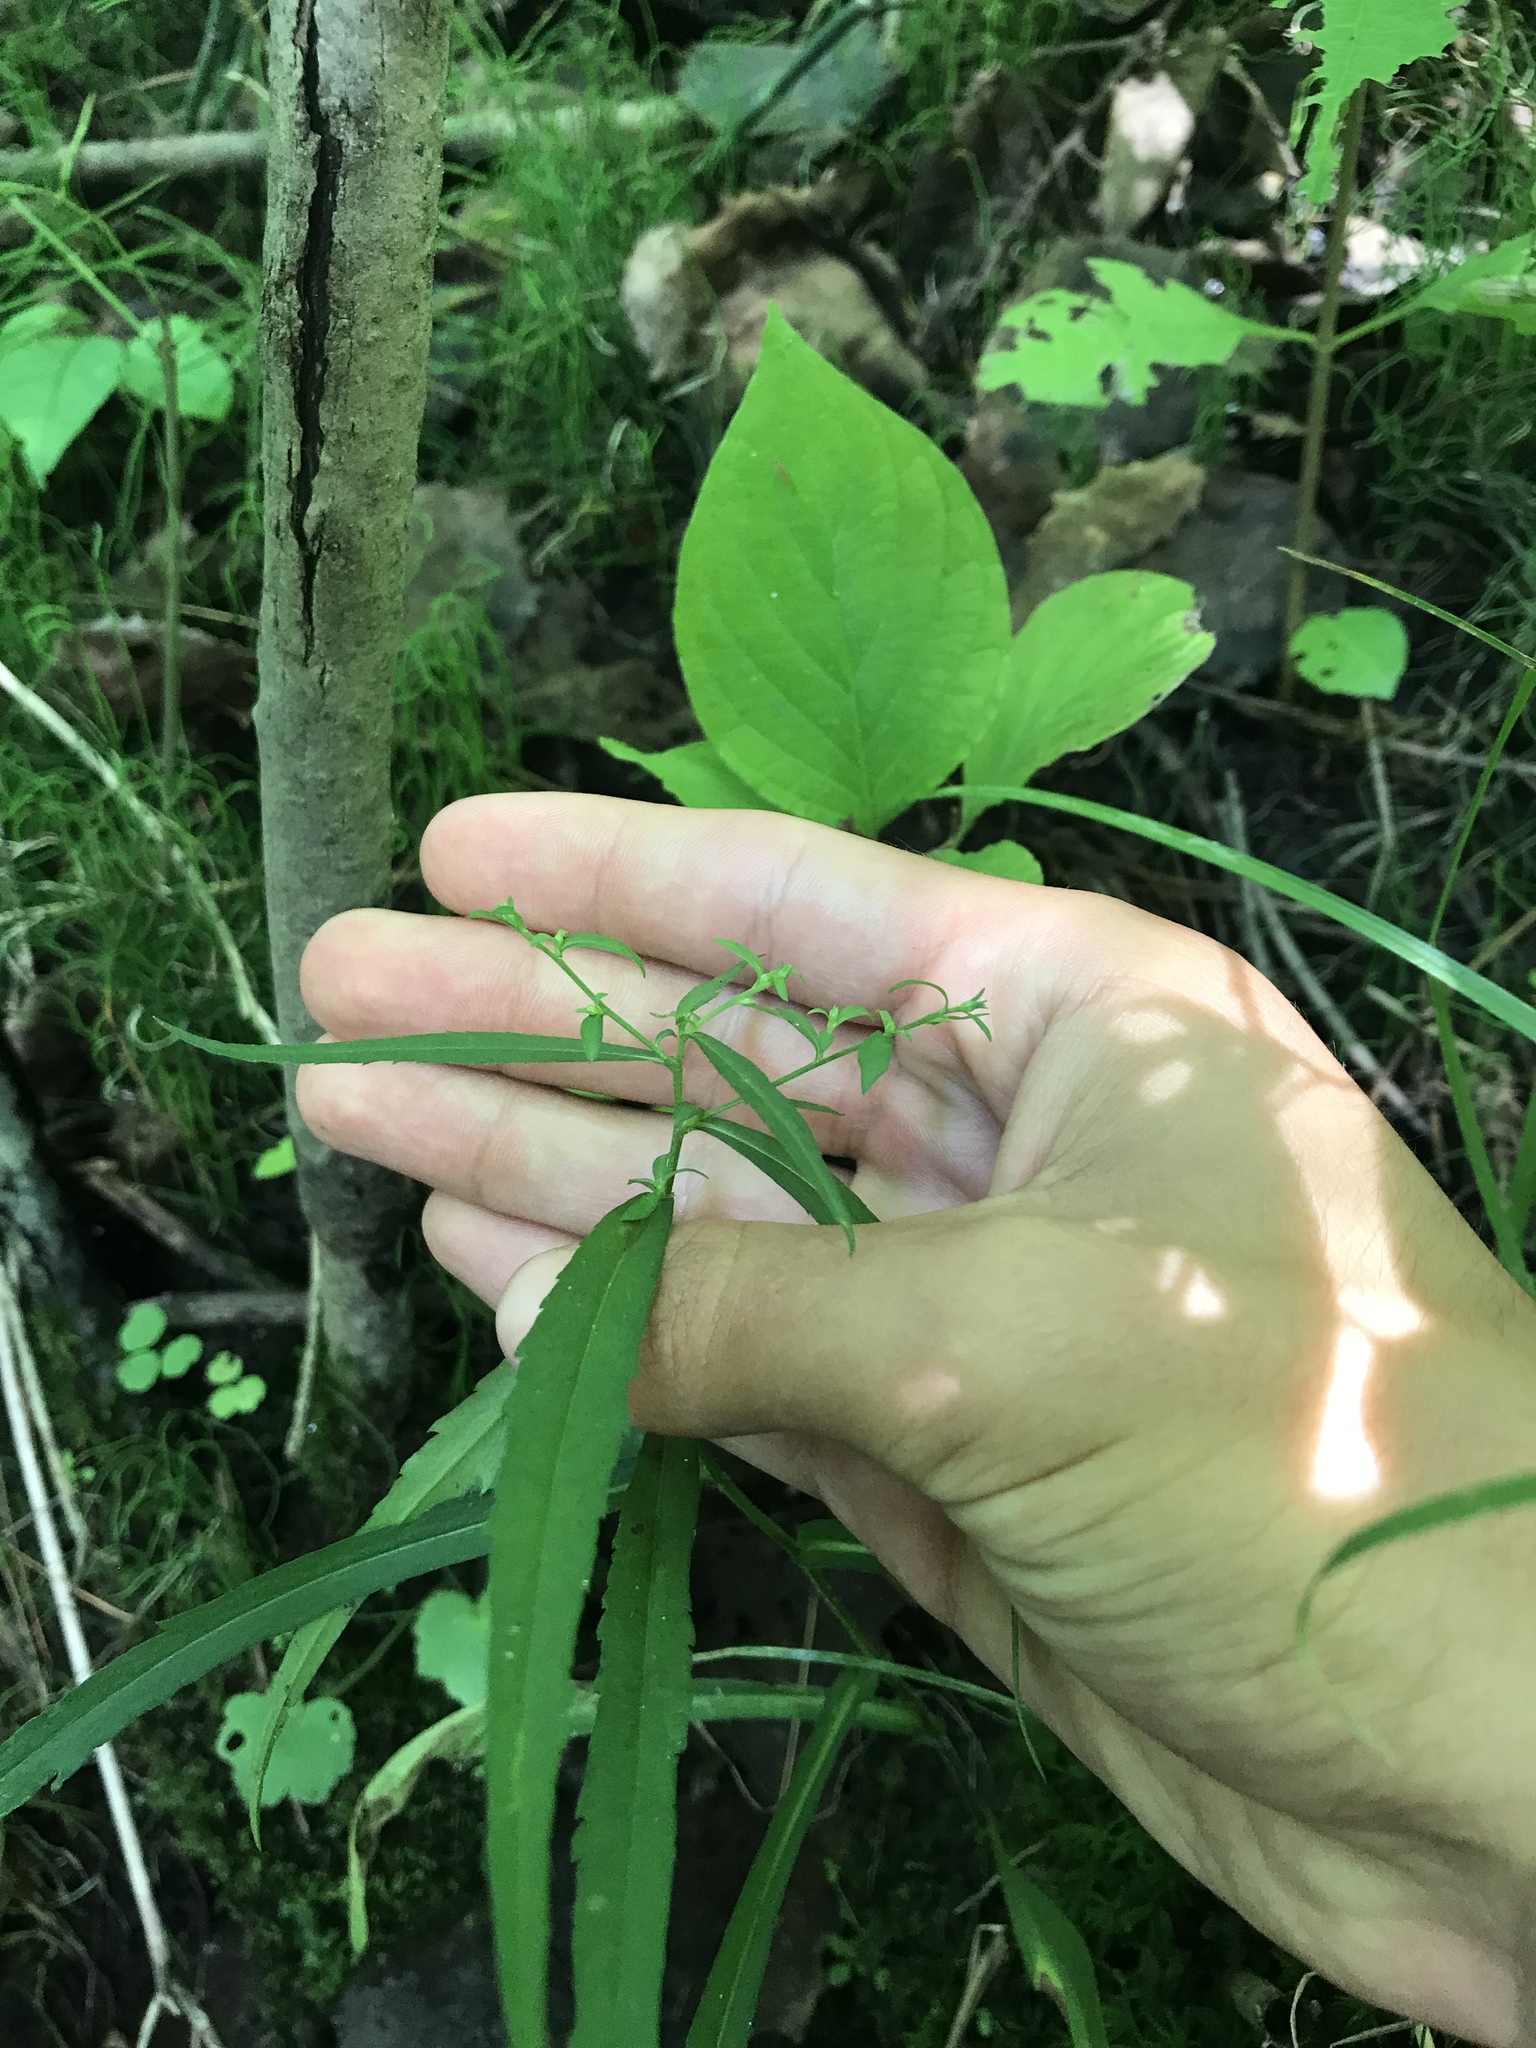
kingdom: Plantae
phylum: Tracheophyta
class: Magnoliopsida
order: Asterales
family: Asteraceae
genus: Solidago
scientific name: Solidago caesia
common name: Woodland goldenrod
